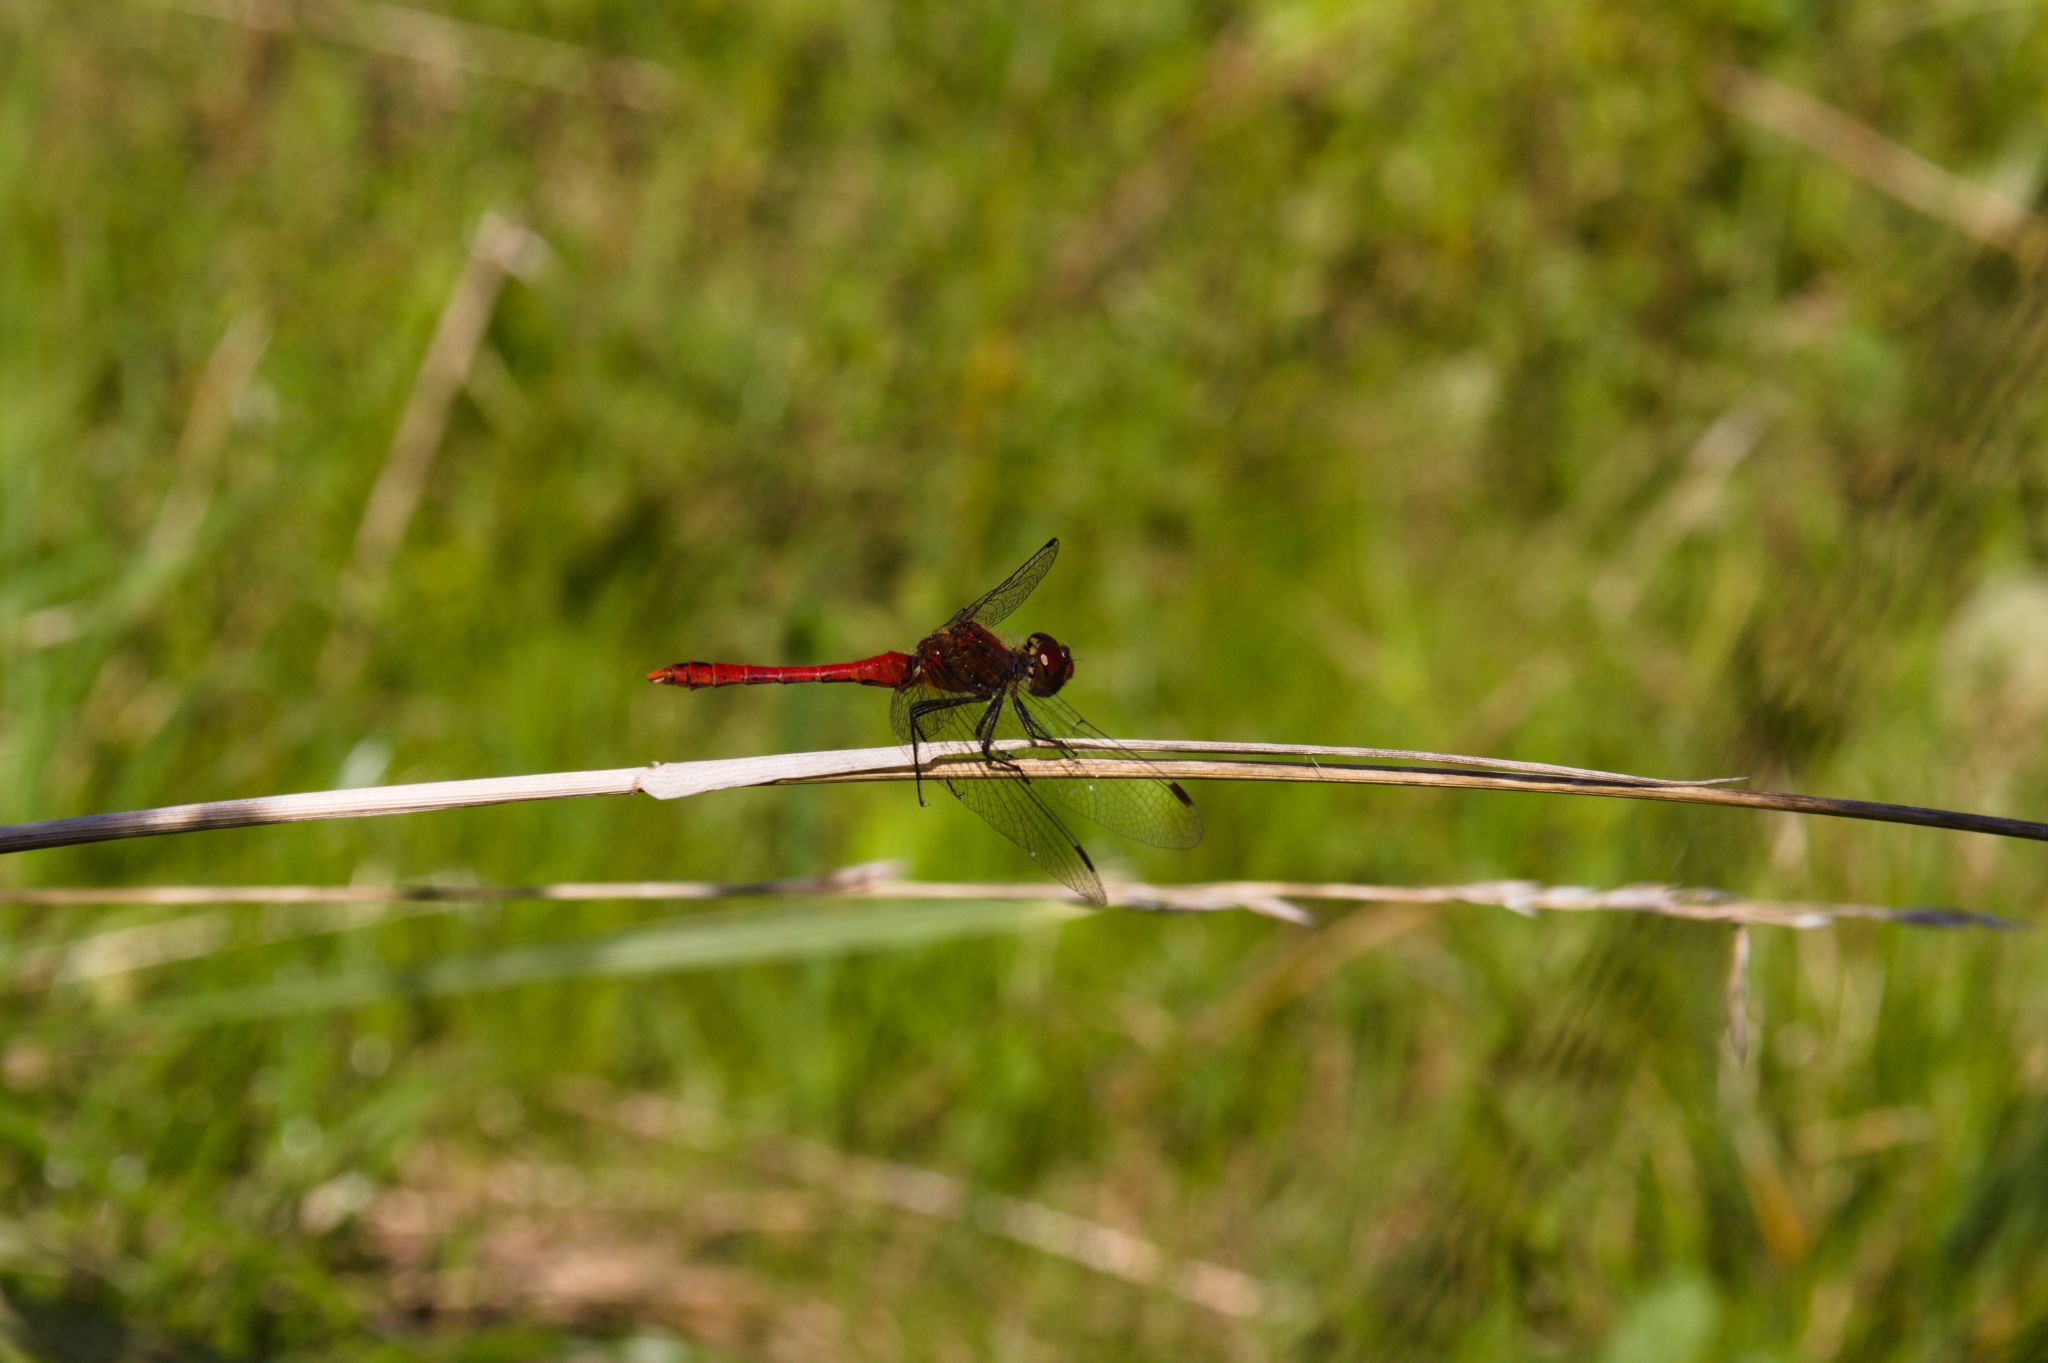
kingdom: Animalia
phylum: Arthropoda
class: Insecta
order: Odonata
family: Libellulidae
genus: Sympetrum
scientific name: Sympetrum sanguineum
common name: Ruddy darter
